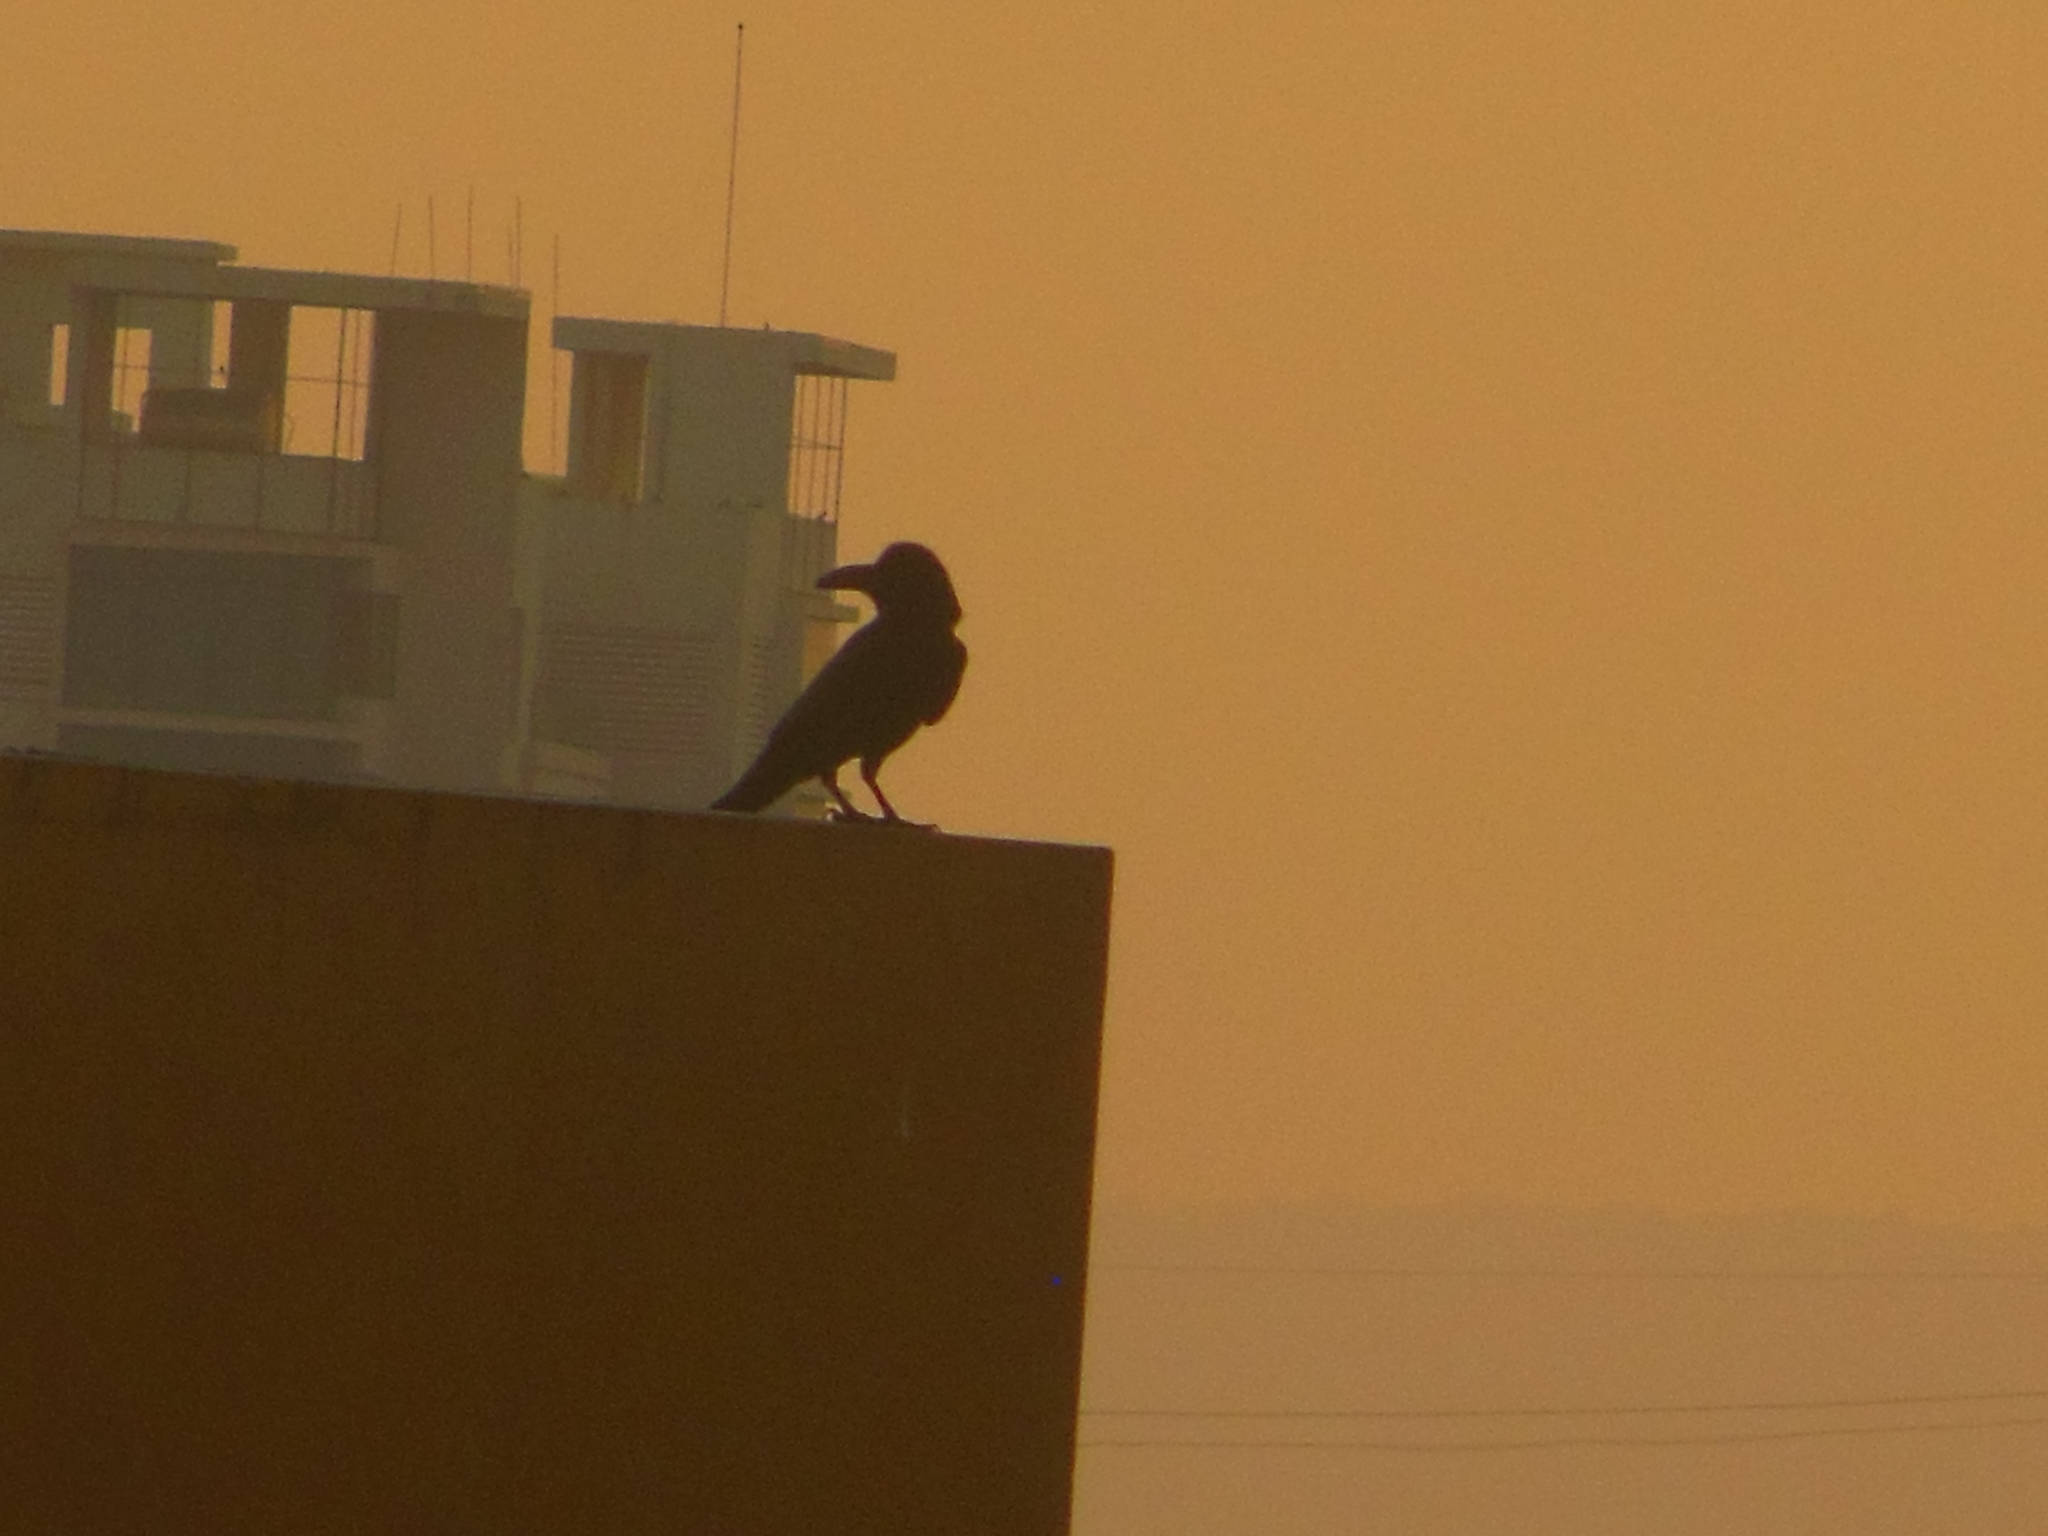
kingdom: Animalia
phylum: Chordata
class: Aves
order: Passeriformes
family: Corvidae
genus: Corvus
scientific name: Corvus macrorhynchos
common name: Large-billed crow
